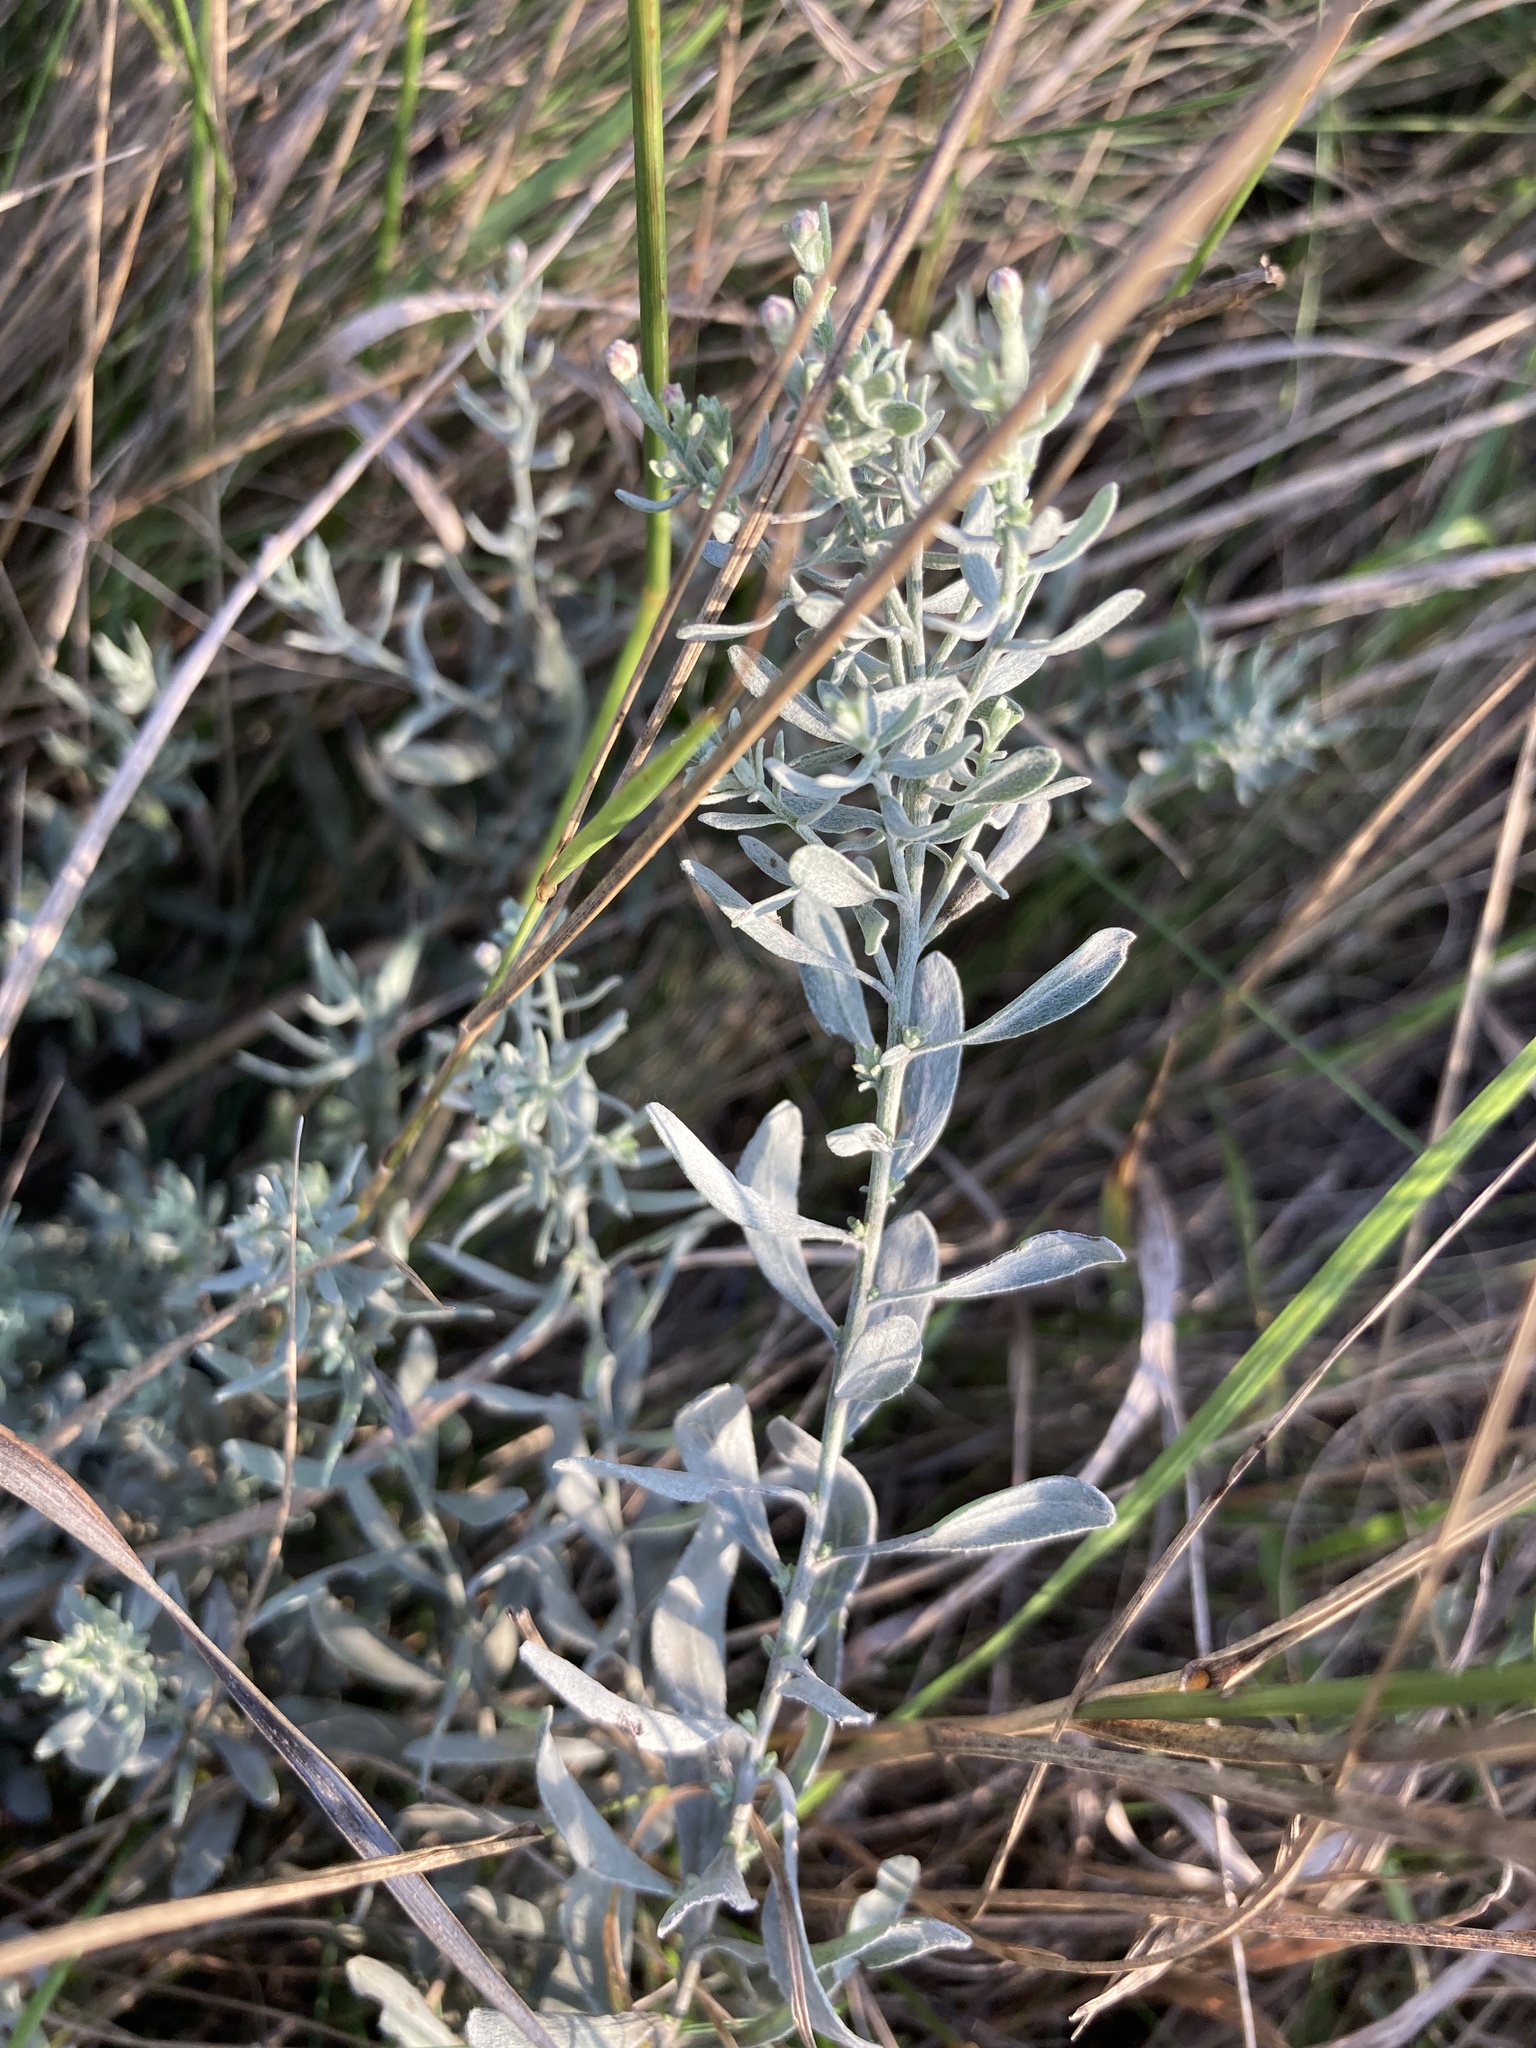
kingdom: Plantae
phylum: Tracheophyta
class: Magnoliopsida
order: Asterales
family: Asteraceae
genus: Galatella
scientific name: Galatella villosa
